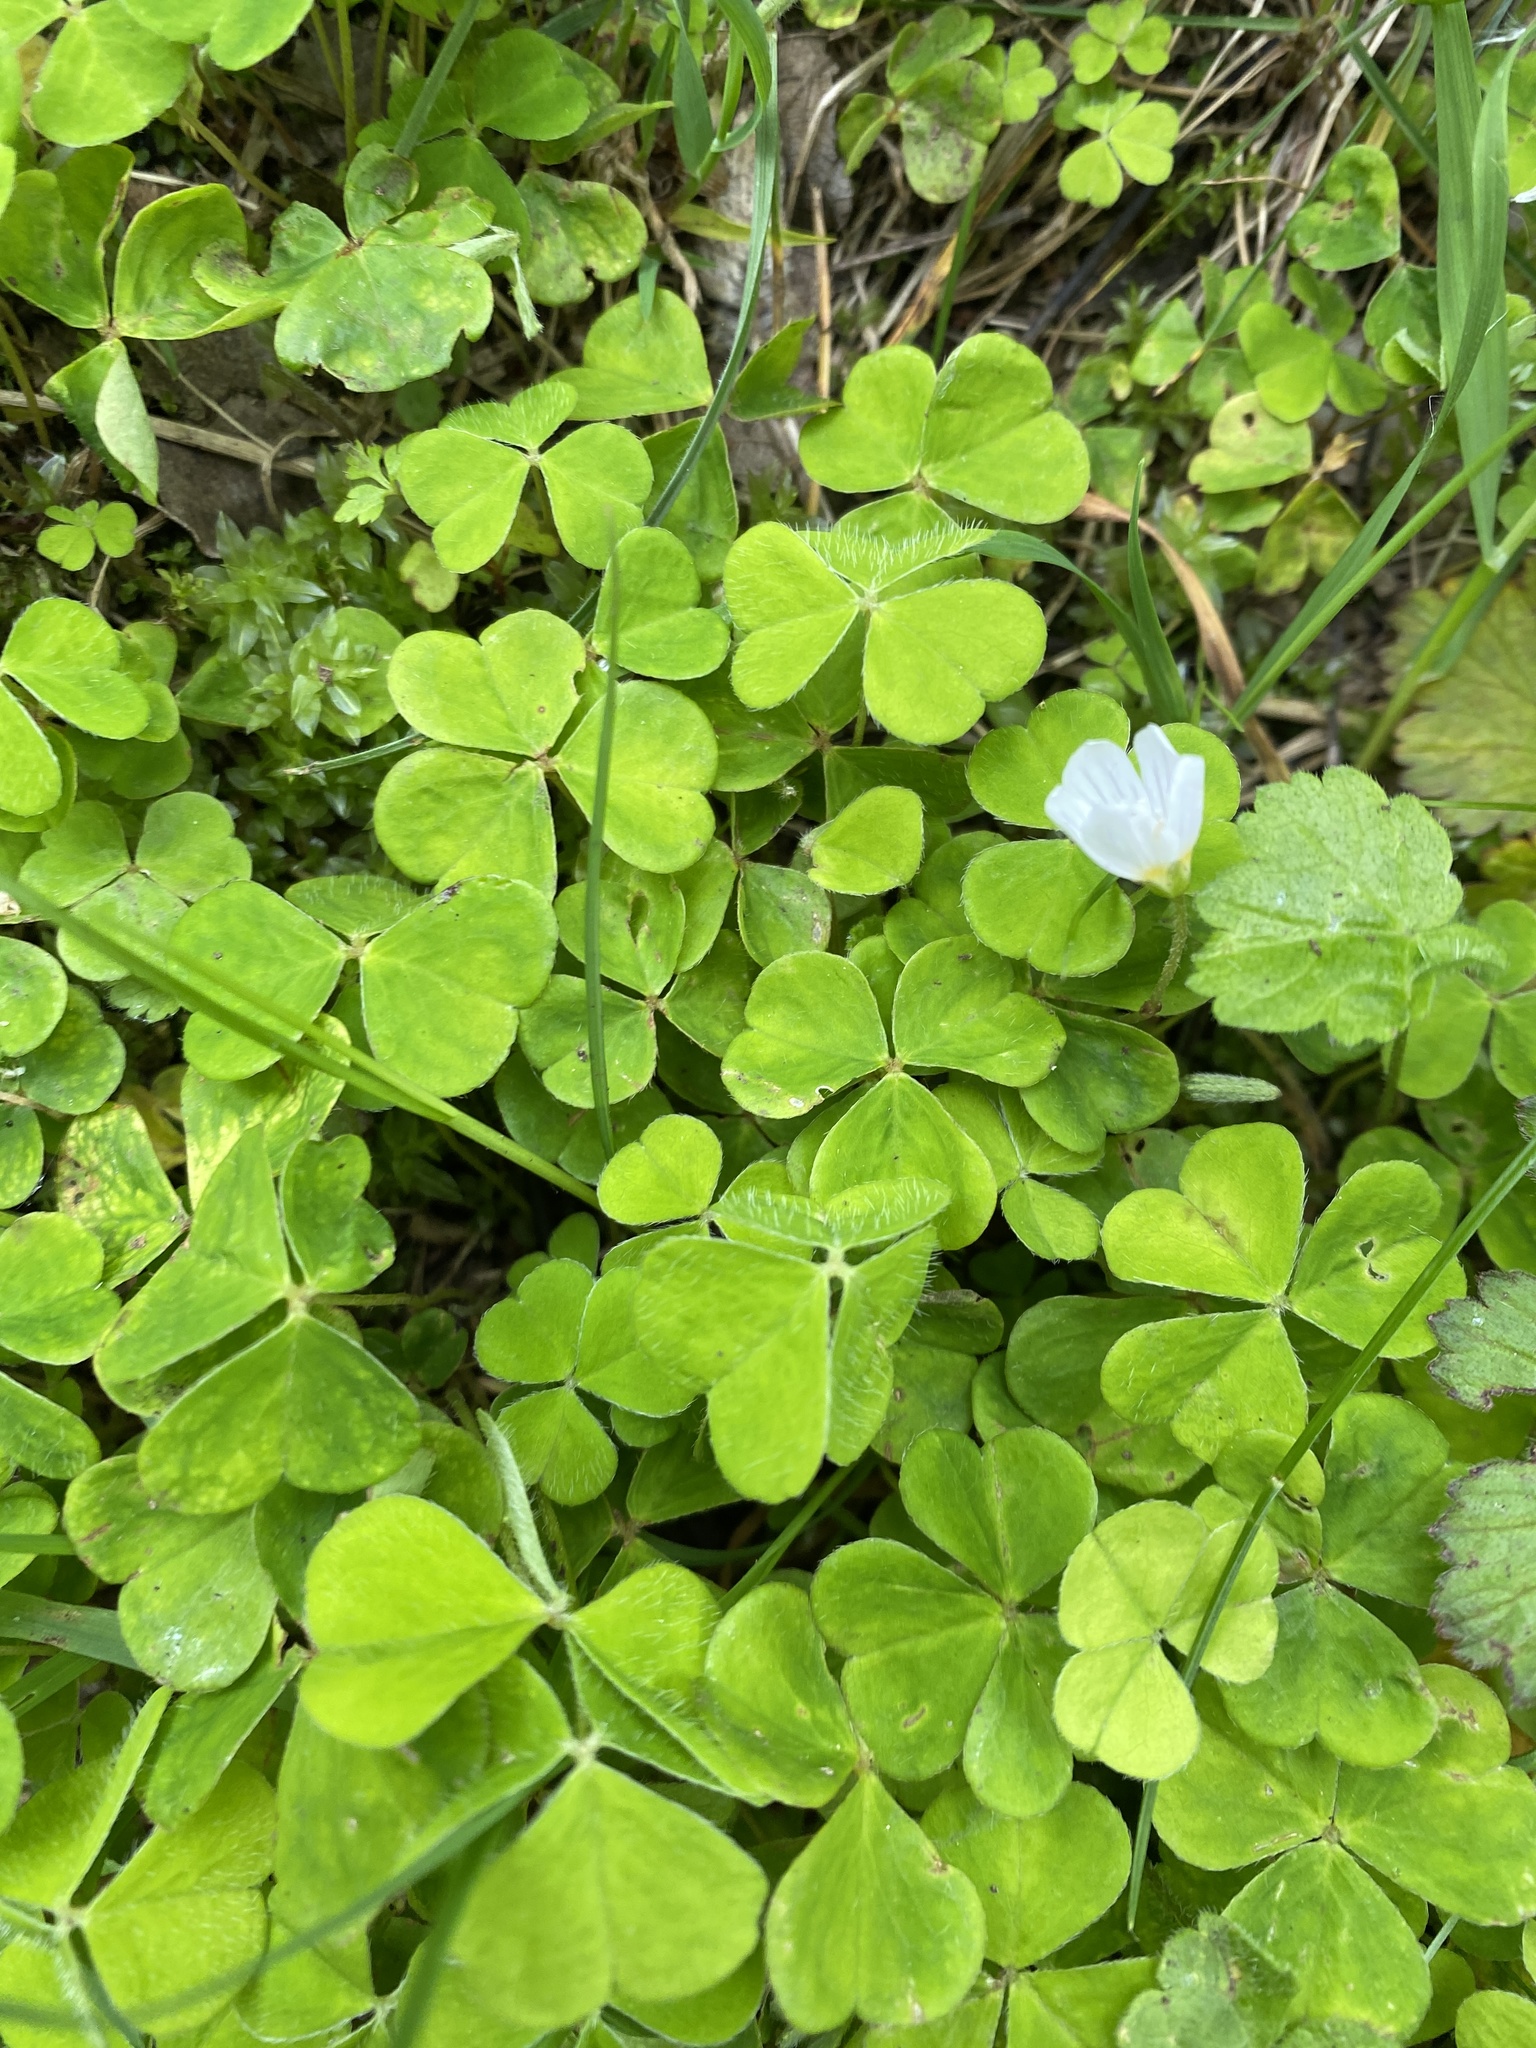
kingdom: Plantae
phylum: Tracheophyta
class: Magnoliopsida
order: Oxalidales
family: Oxalidaceae
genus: Oxalis
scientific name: Oxalis acetosella
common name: Wood-sorrel
